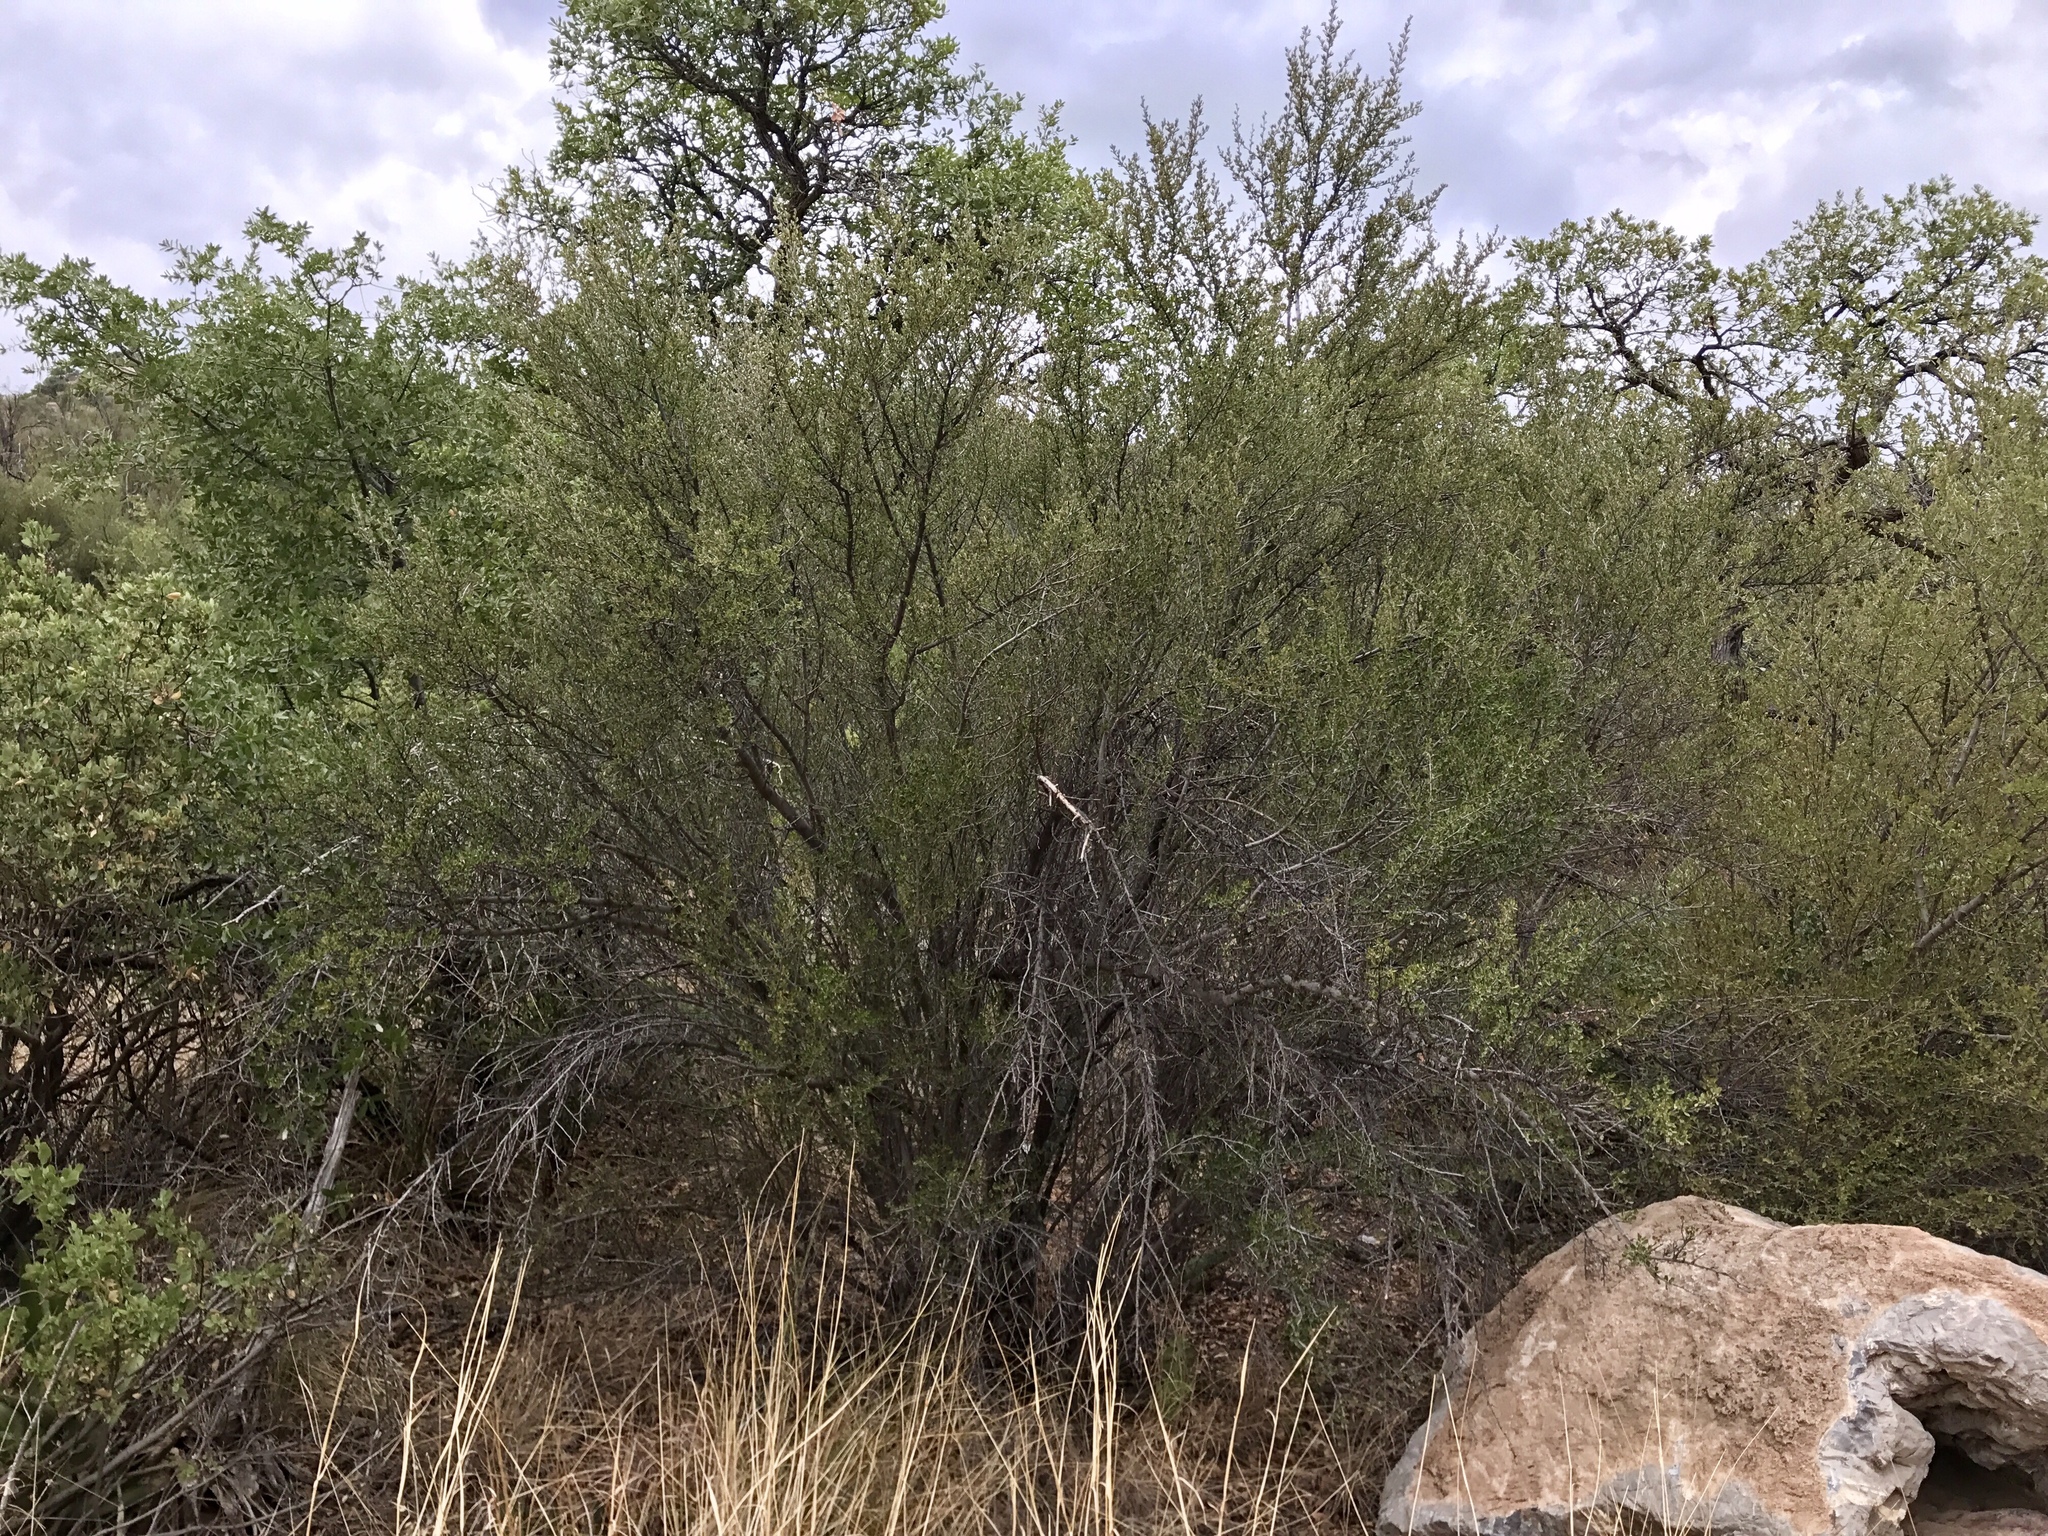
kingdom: Plantae
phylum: Tracheophyta
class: Magnoliopsida
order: Rosales
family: Rosaceae
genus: Cercocarpus
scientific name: Cercocarpus breviflorus
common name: Wright's mountain-mahogany
